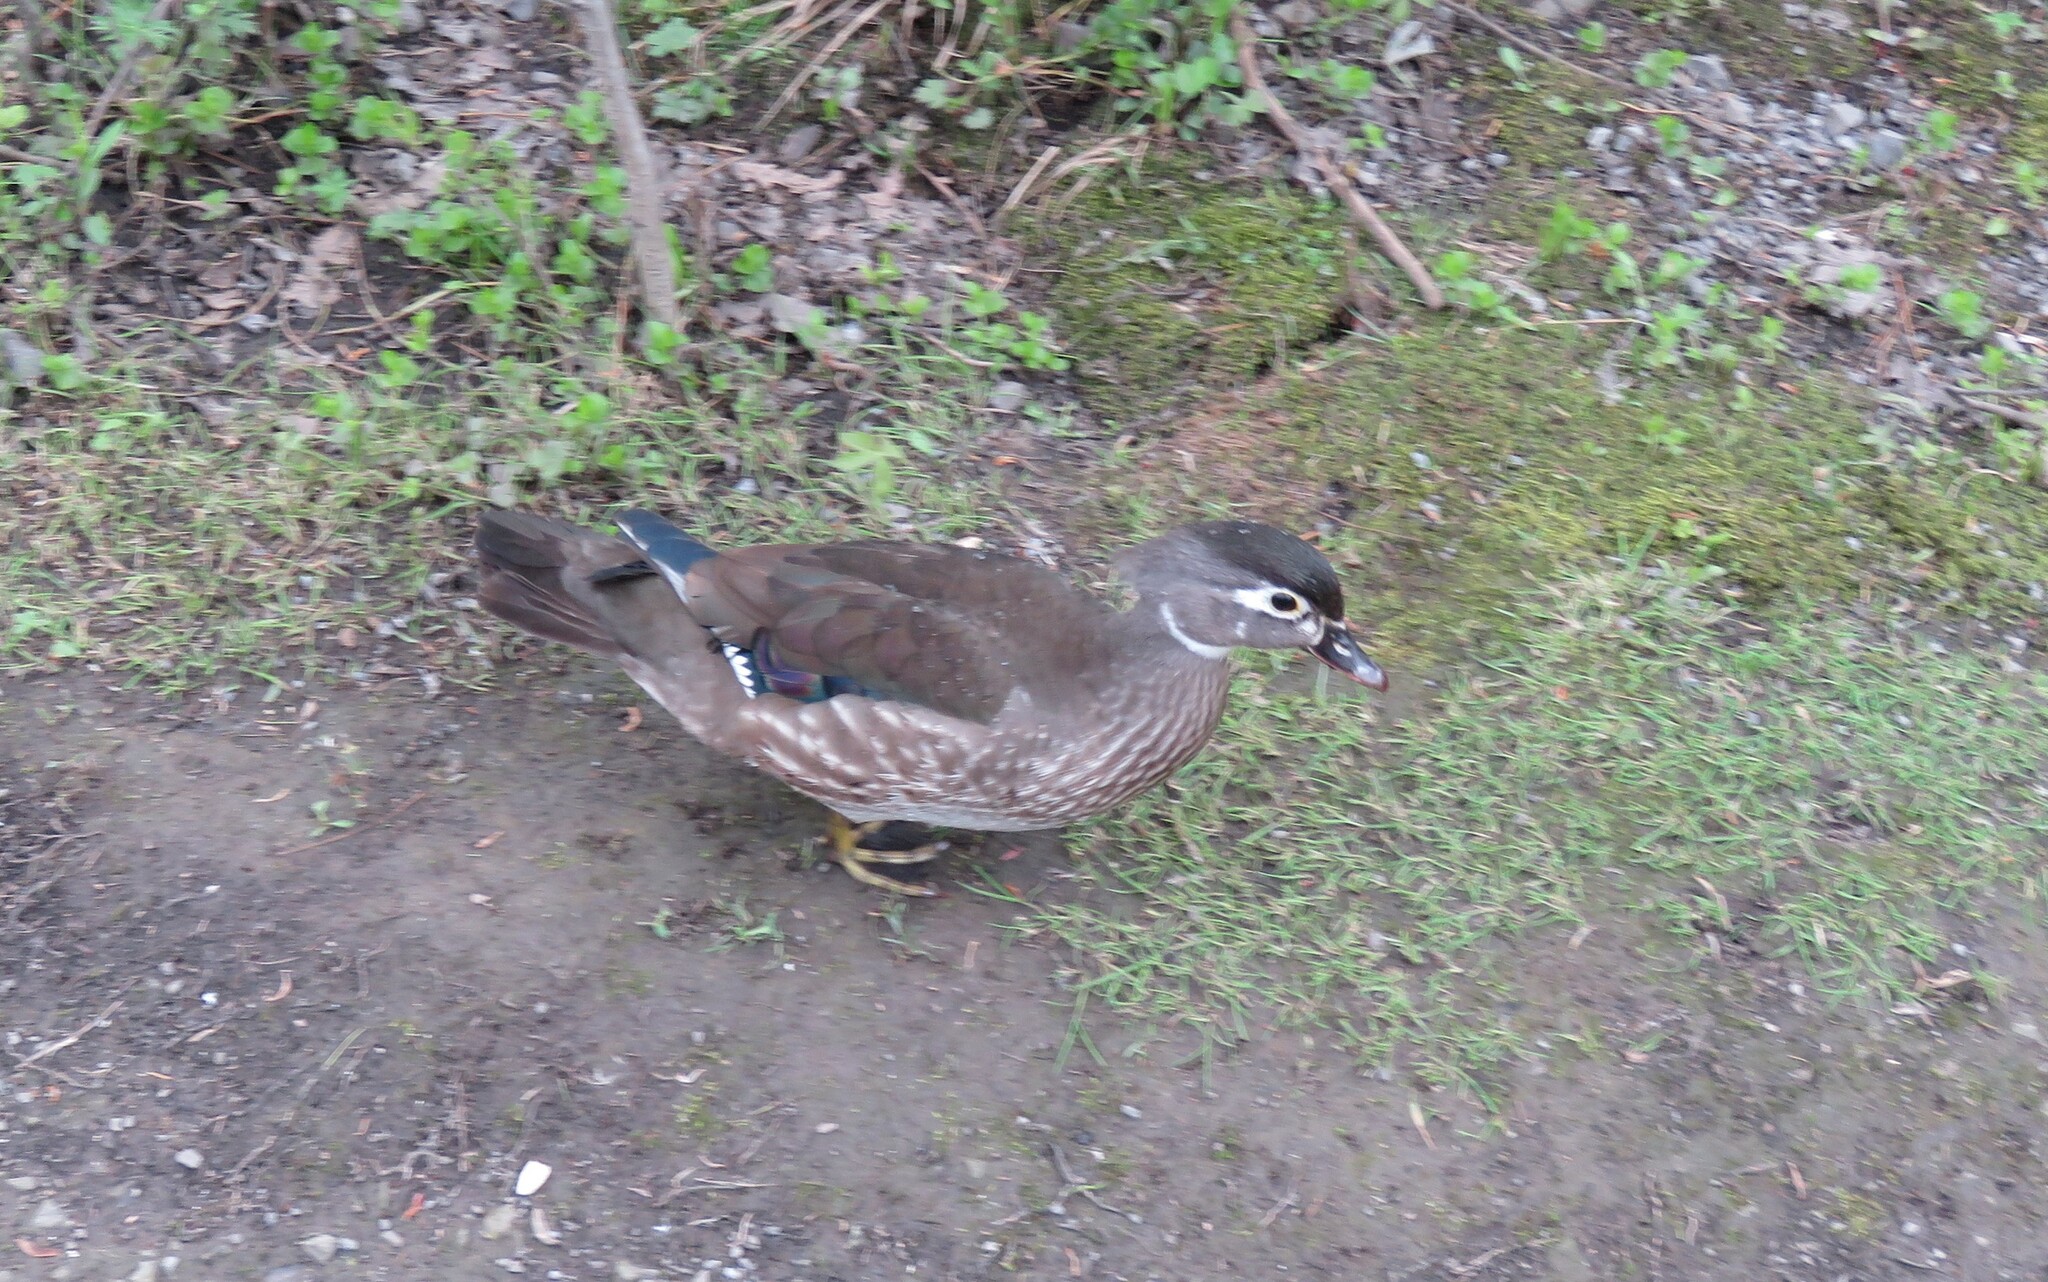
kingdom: Animalia
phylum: Chordata
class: Aves
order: Anseriformes
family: Anatidae
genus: Aix
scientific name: Aix sponsa
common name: Wood duck
